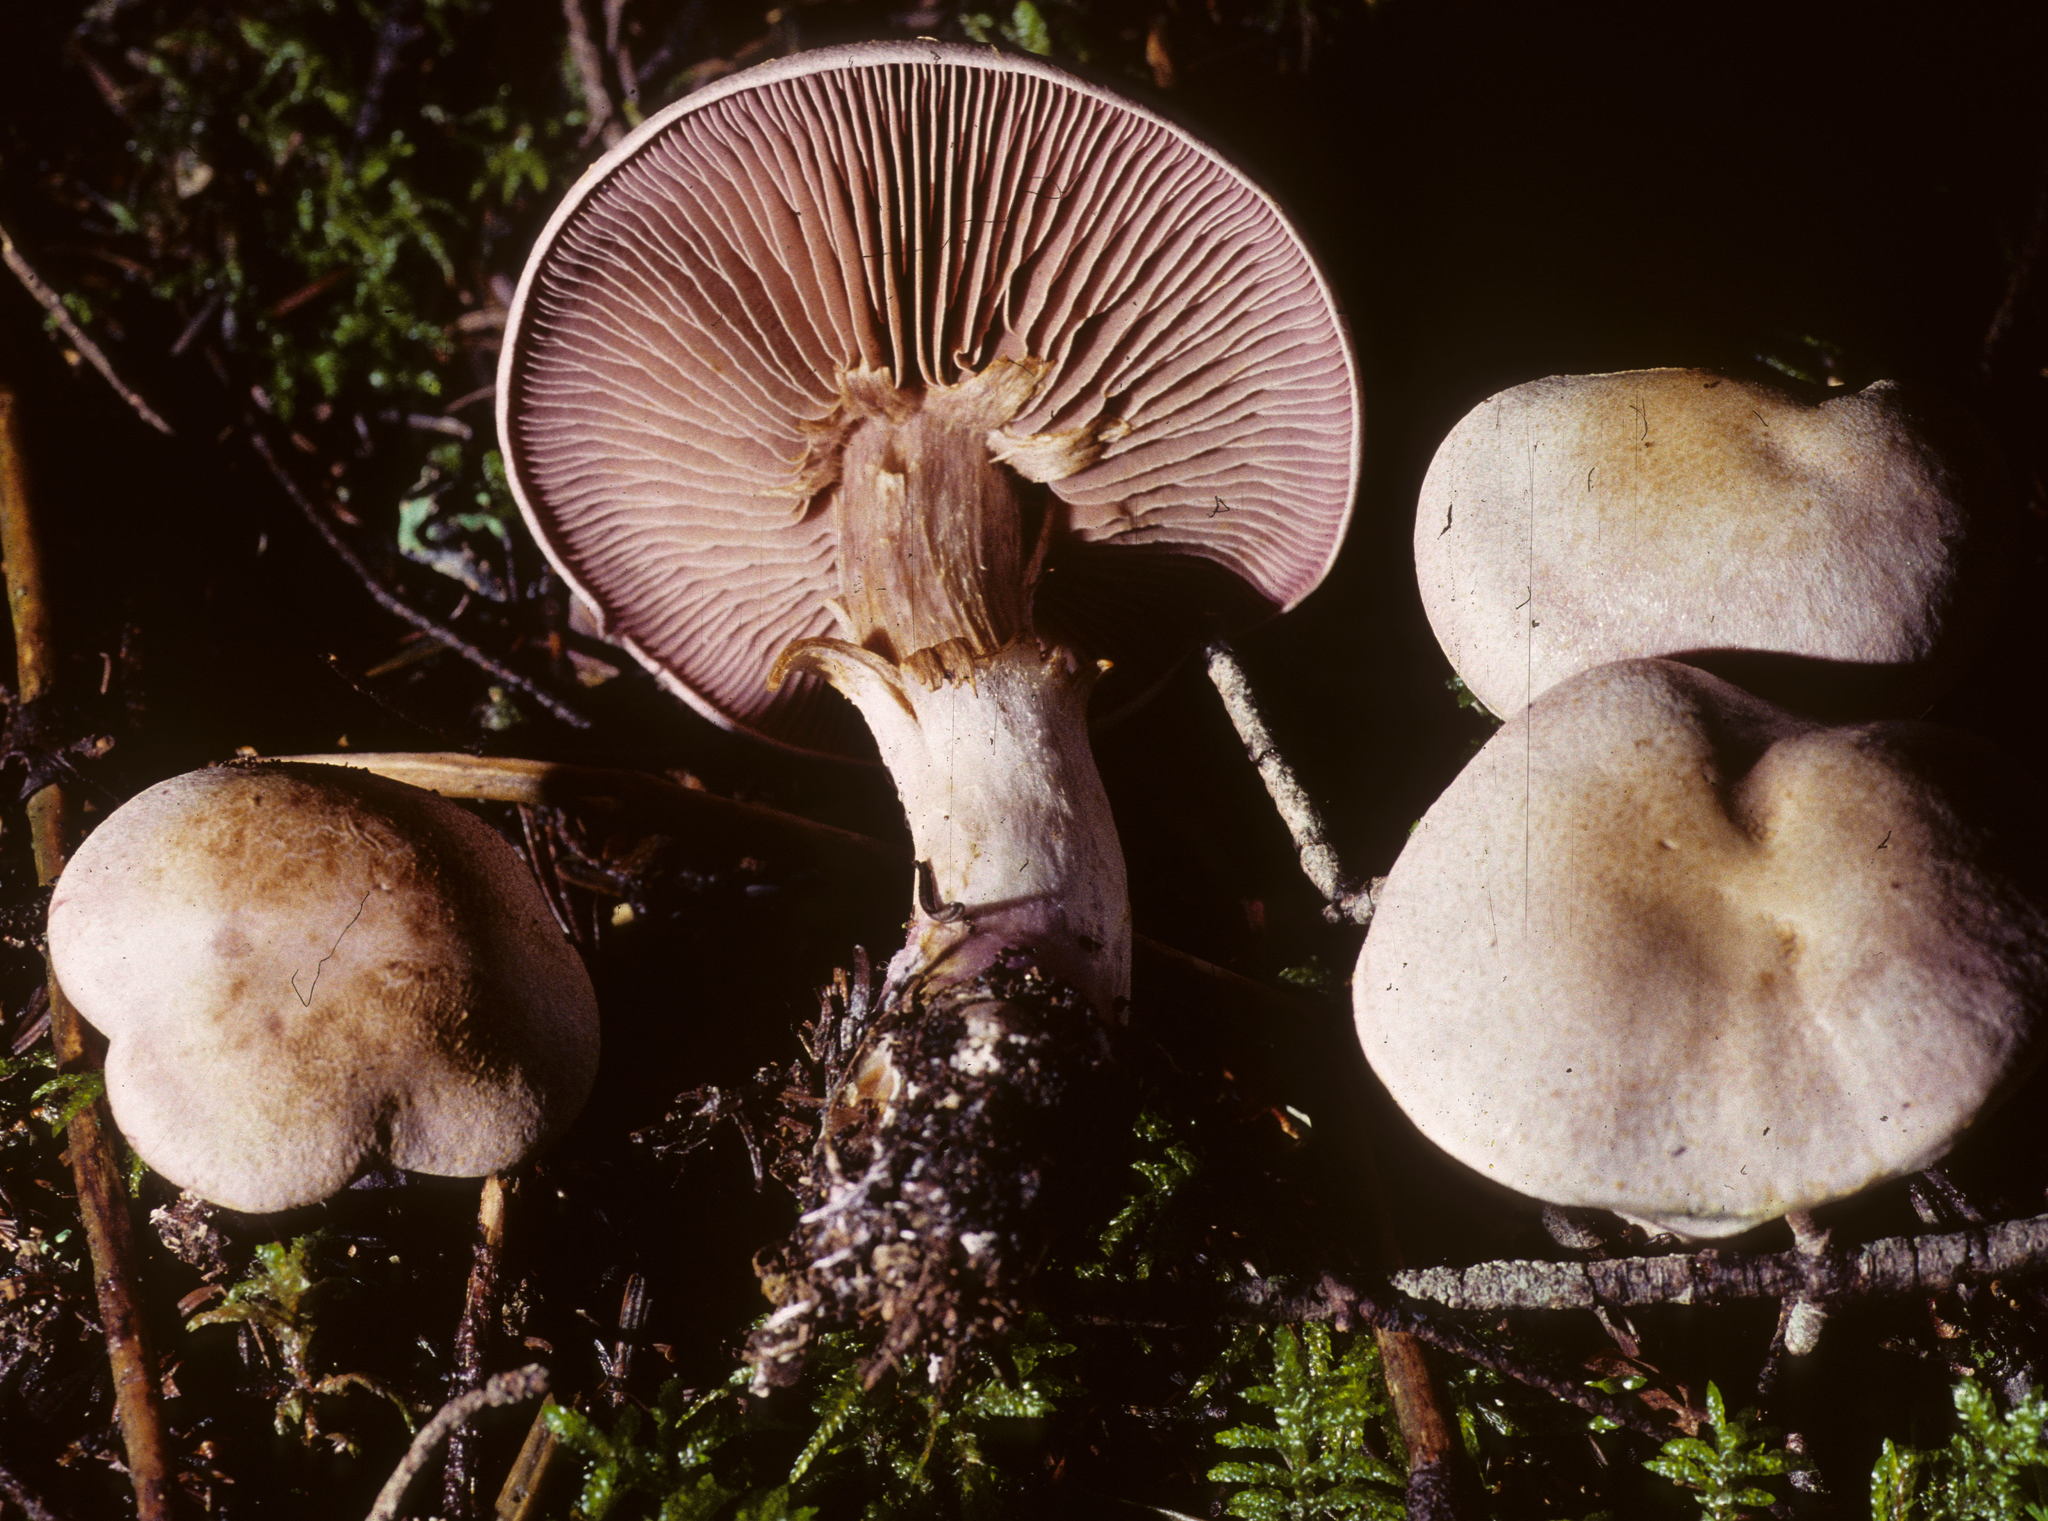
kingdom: Fungi
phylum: Basidiomycota
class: Agaricomycetes
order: Agaricales
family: Cortinariaceae
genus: Cortinarius
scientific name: Cortinarius camphoratus
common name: Goatcheese webcap
